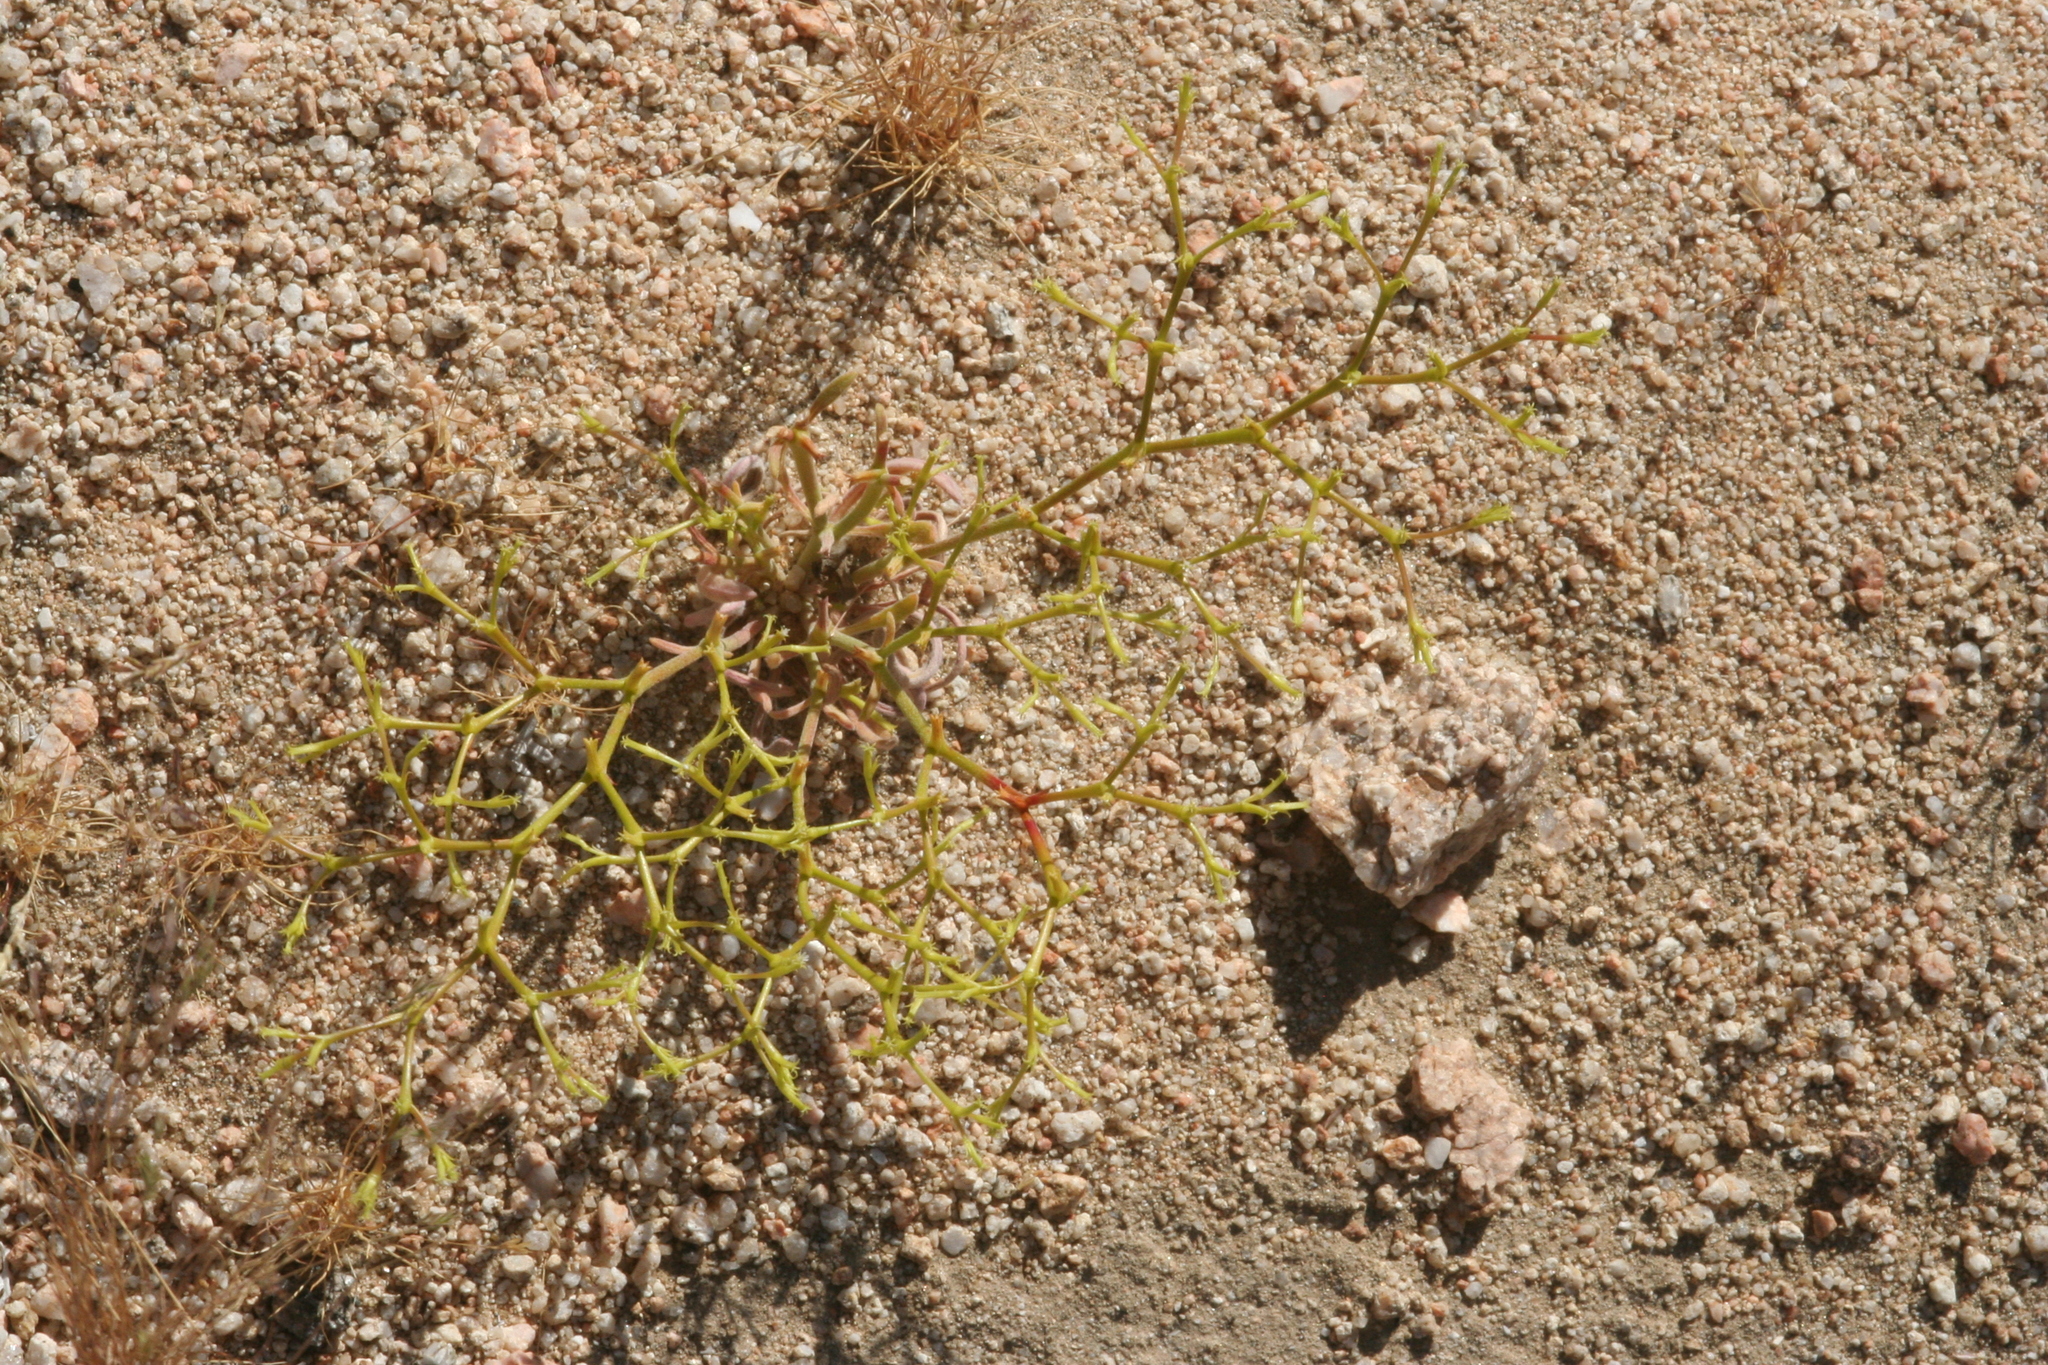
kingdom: Plantae
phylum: Tracheophyta
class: Magnoliopsida
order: Caryophyllales
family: Polygonaceae
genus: Chorizanthe
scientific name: Chorizanthe brevicornu
